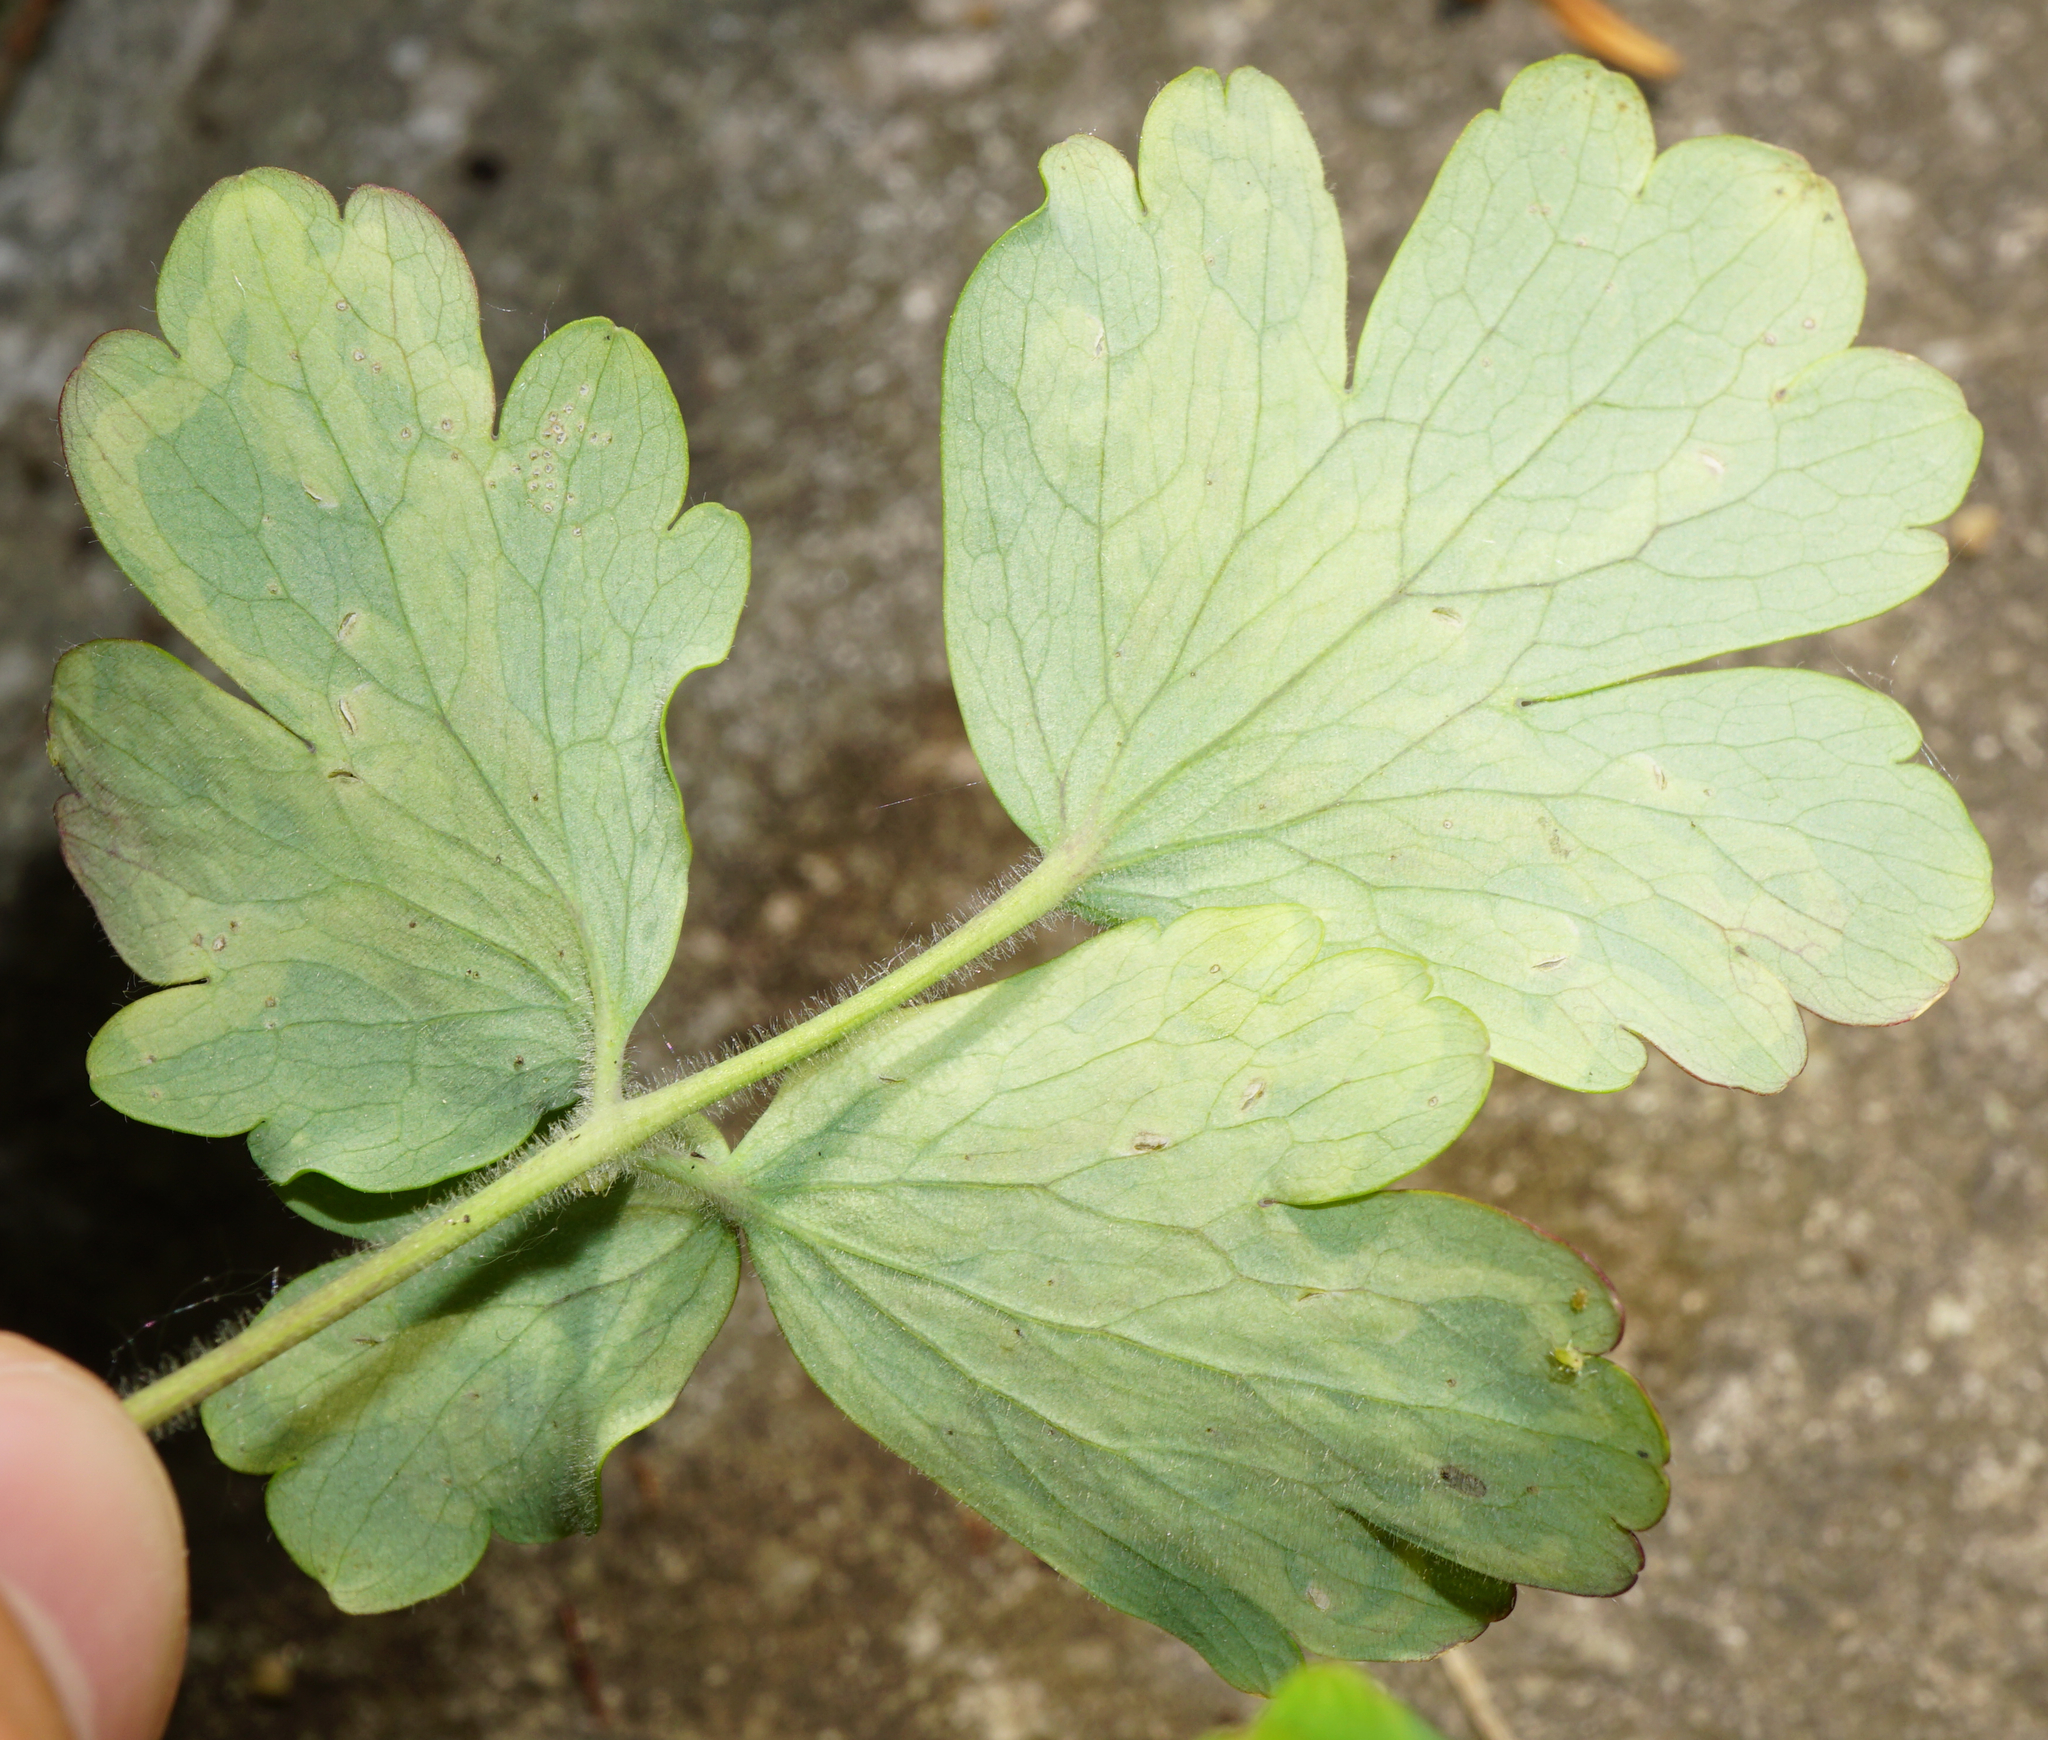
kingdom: Animalia
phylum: Arthropoda
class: Insecta
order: Diptera
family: Agromyzidae
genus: Phytomyza
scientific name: Phytomyza ancholiae
